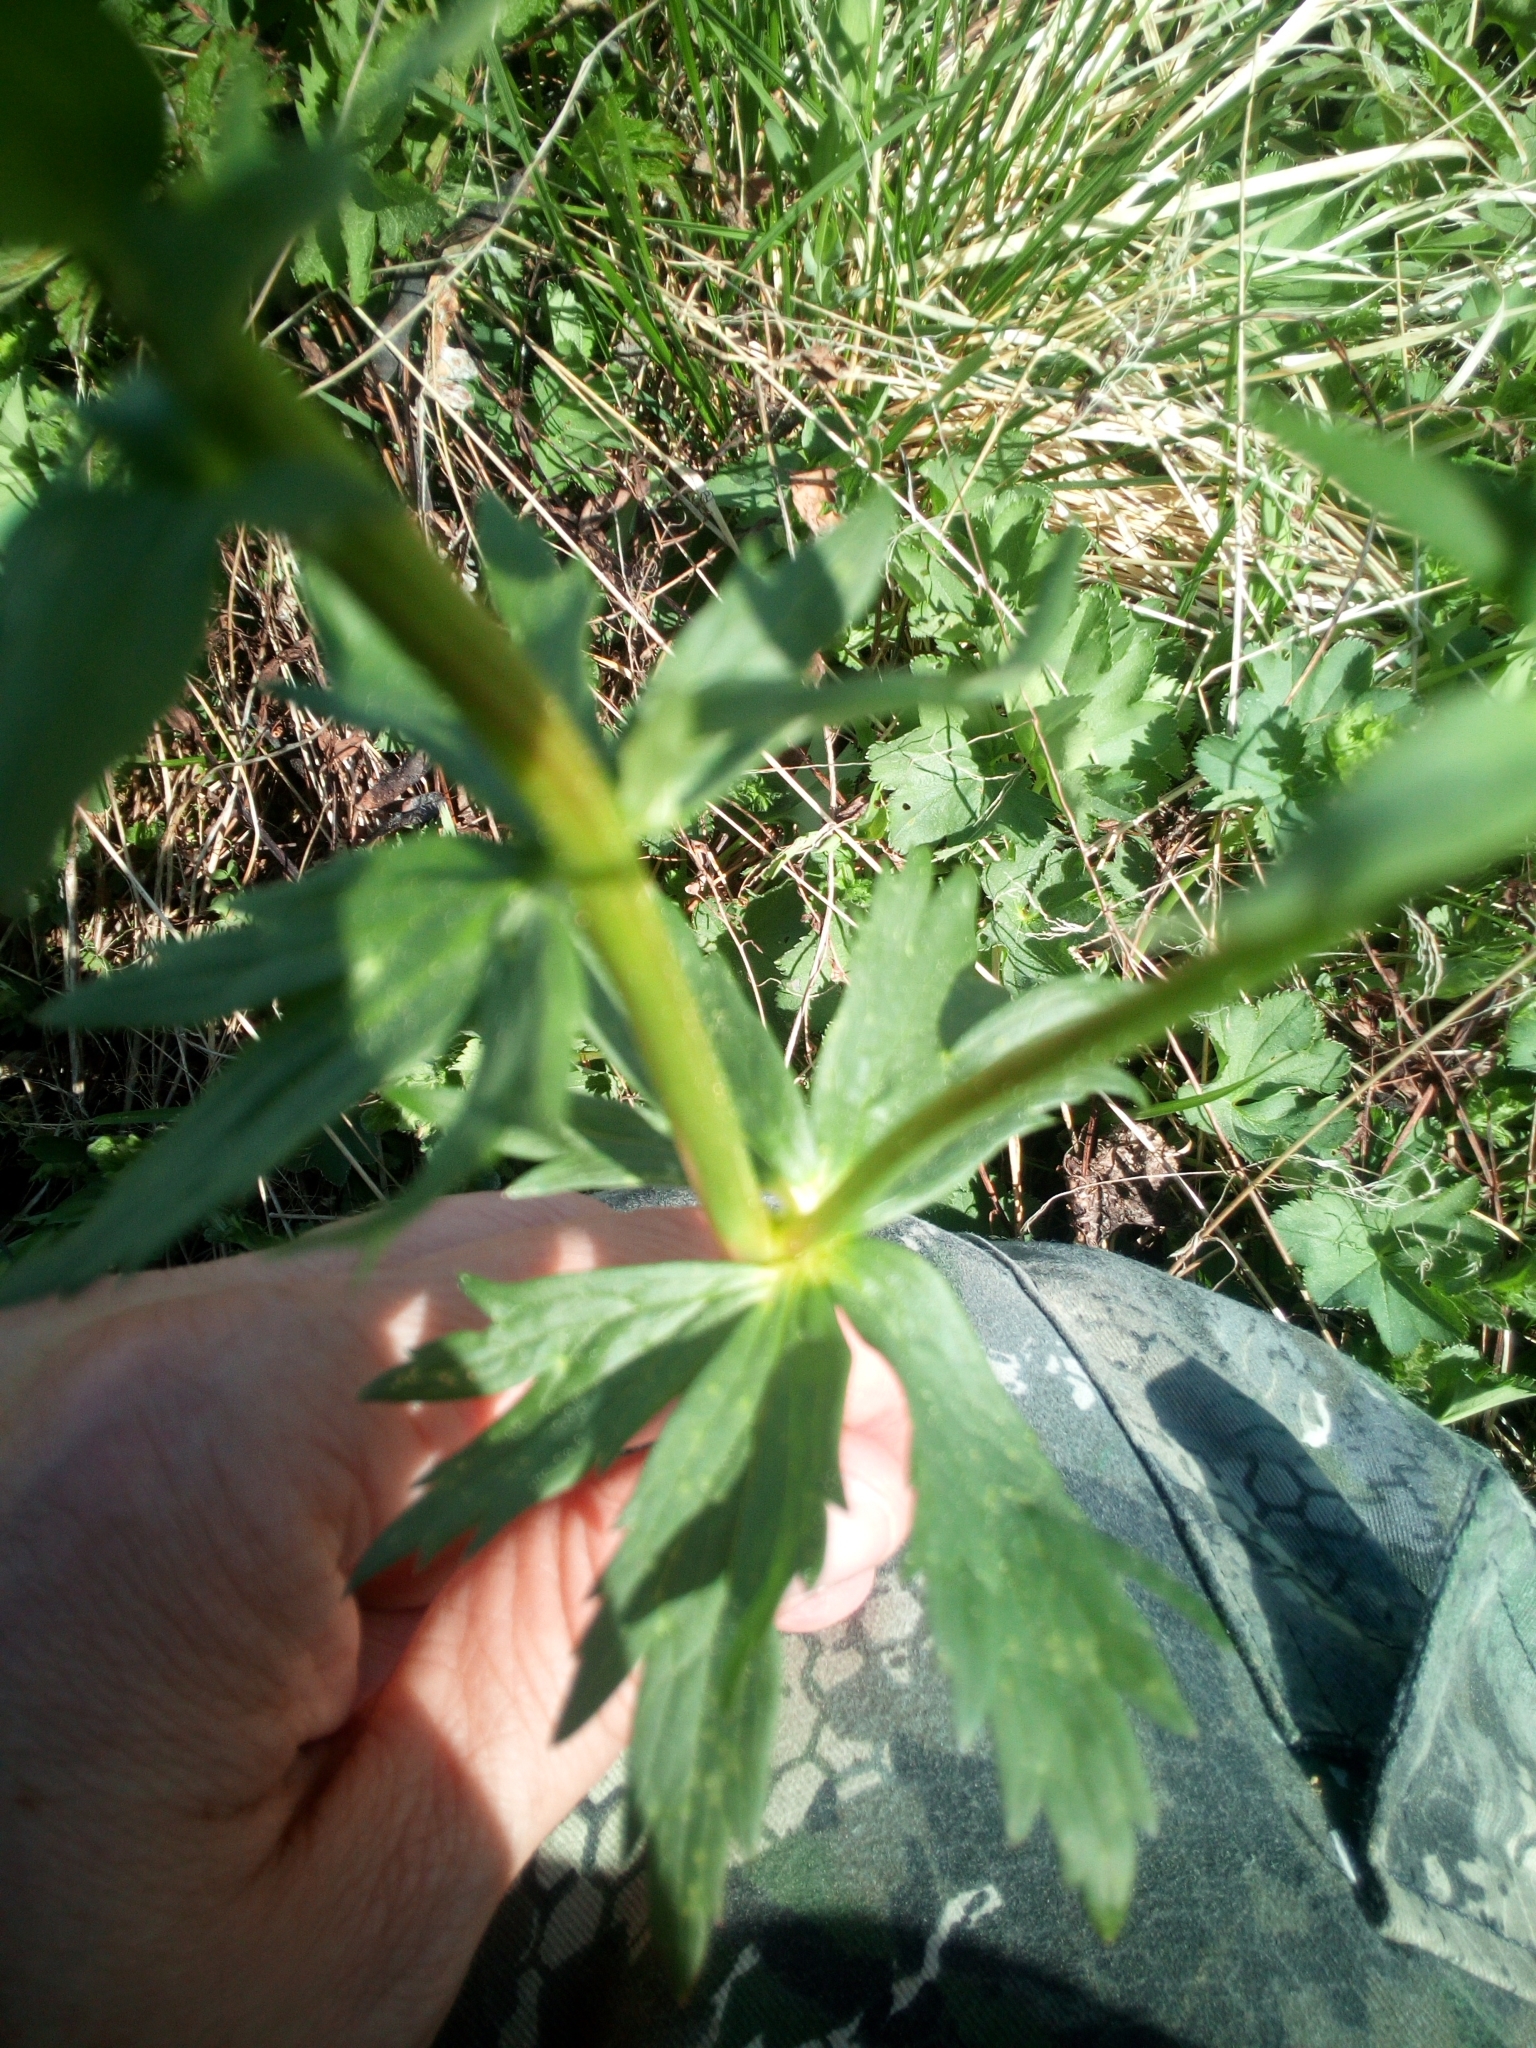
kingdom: Plantae
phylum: Tracheophyta
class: Magnoliopsida
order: Ranunculales
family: Ranunculaceae
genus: Trollius
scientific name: Trollius europaeus
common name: European globeflower
